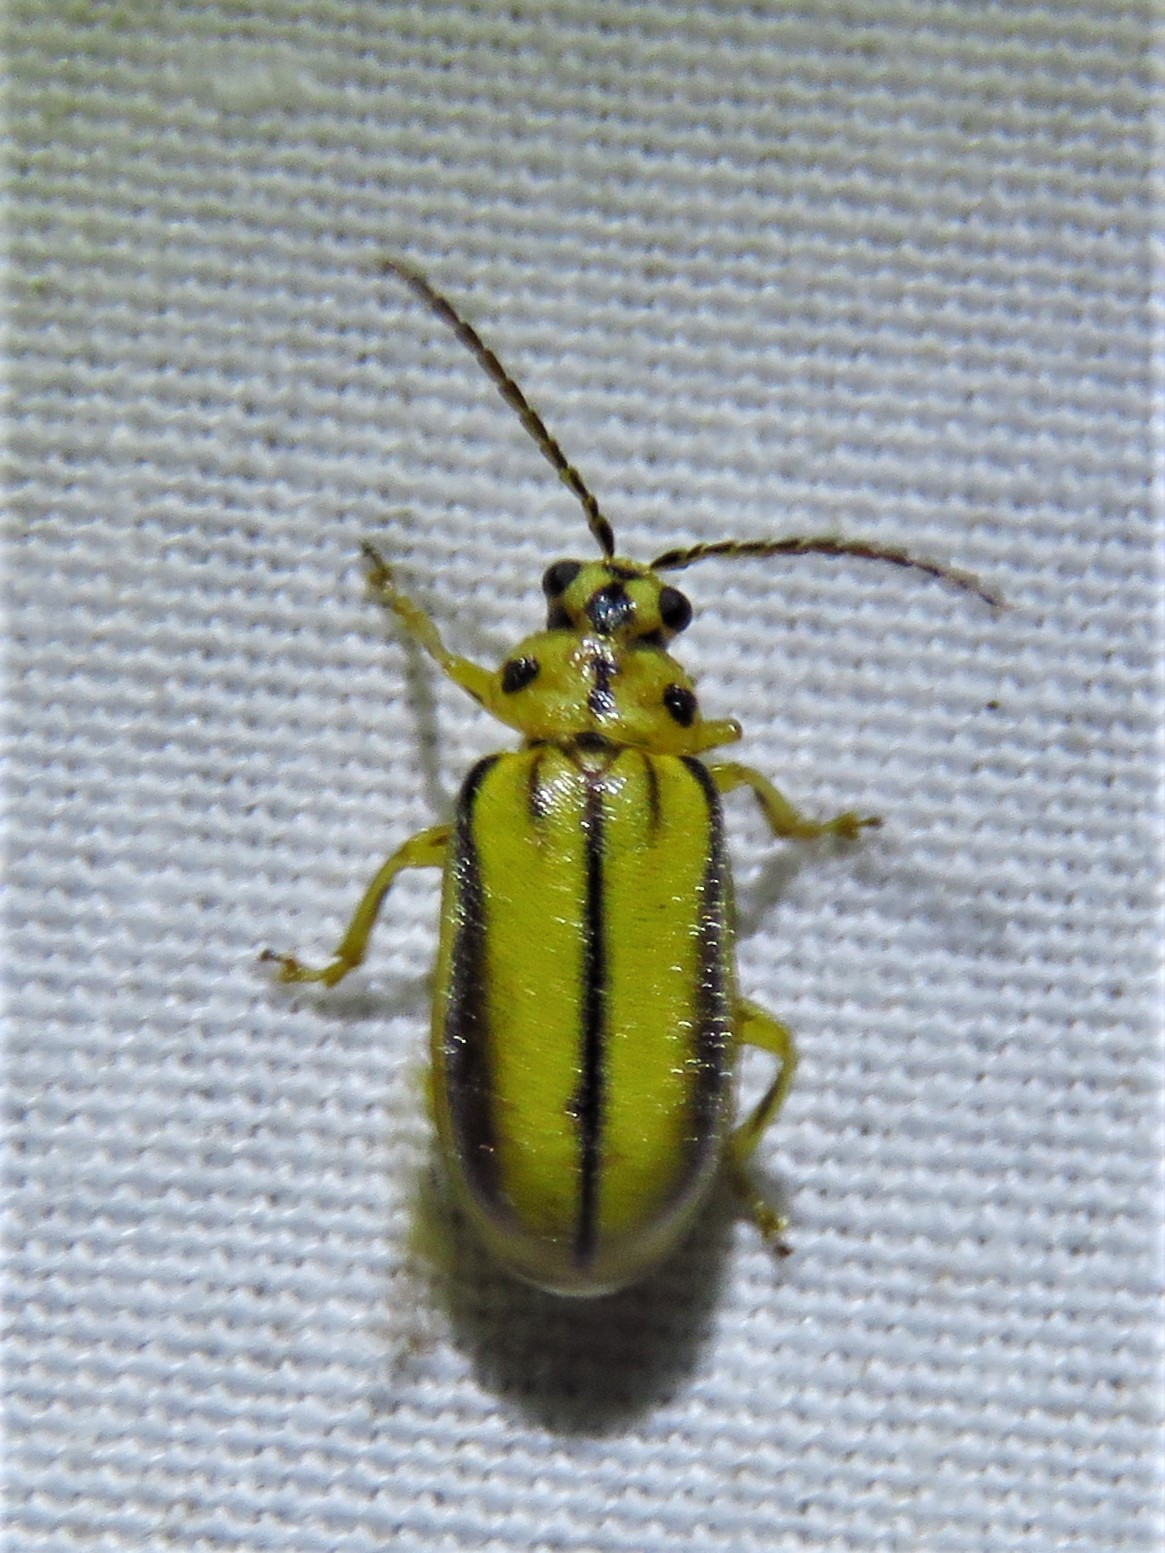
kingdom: Animalia
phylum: Arthropoda
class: Insecta
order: Coleoptera
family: Chrysomelidae
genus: Xanthogaleruca
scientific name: Xanthogaleruca luteola
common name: Elm leaf beetle
